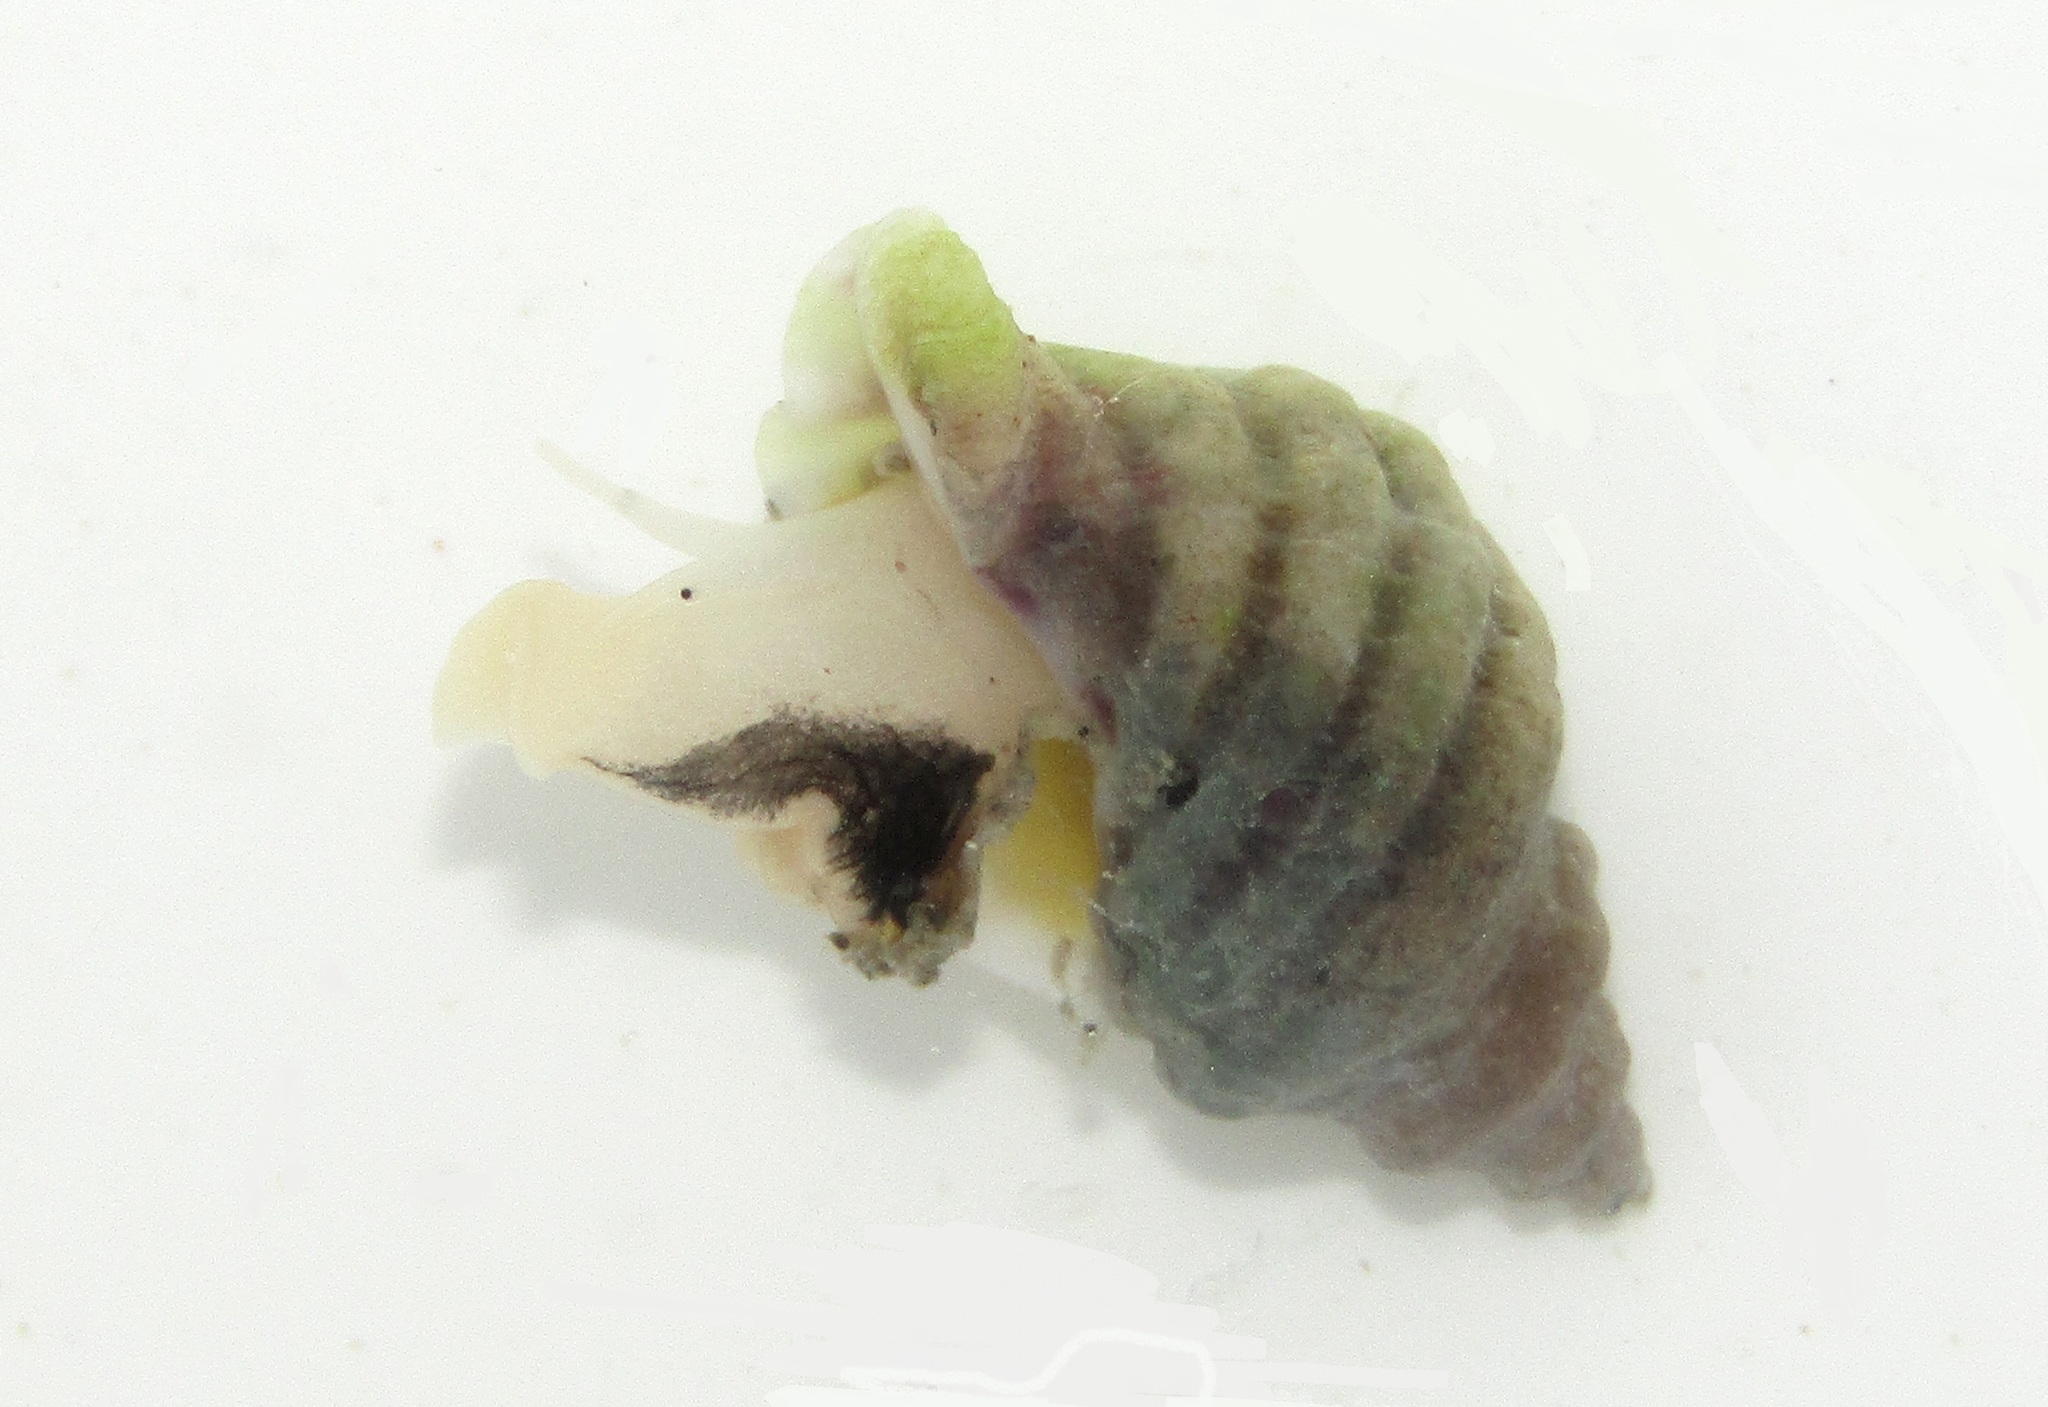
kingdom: Animalia
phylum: Mollusca
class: Gastropoda
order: Neogastropoda
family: Muricidae
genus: Paratrophon
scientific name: Paratrophon cheesemani
